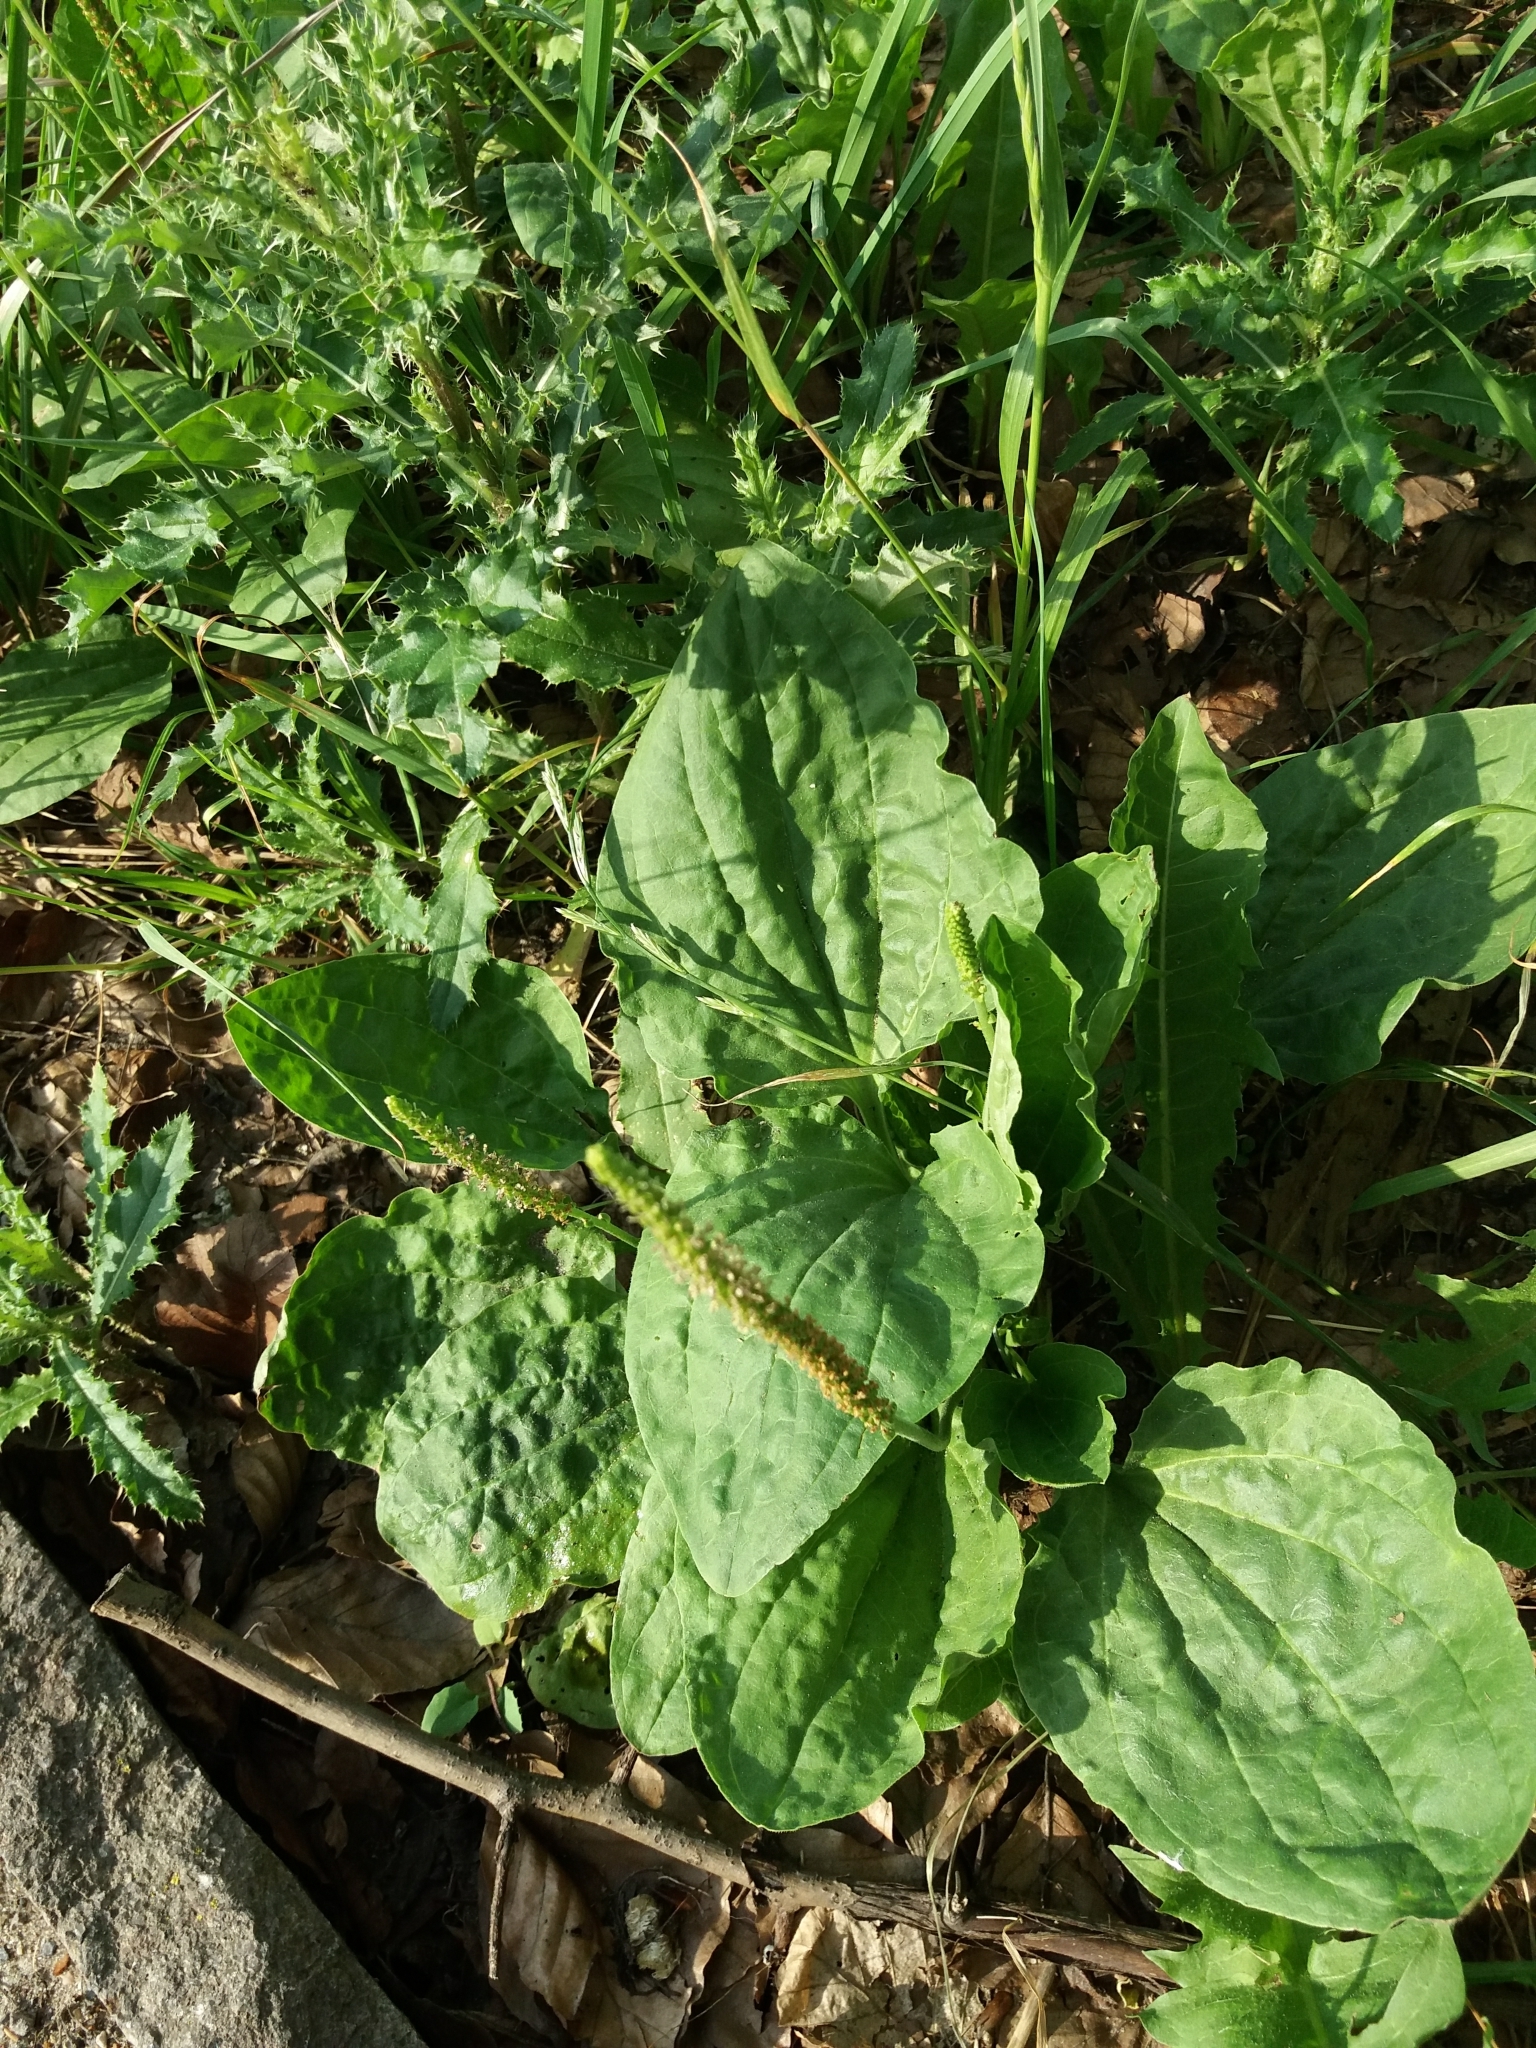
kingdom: Plantae
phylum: Tracheophyta
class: Magnoliopsida
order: Lamiales
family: Plantaginaceae
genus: Plantago
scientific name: Plantago major
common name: Common plantain
